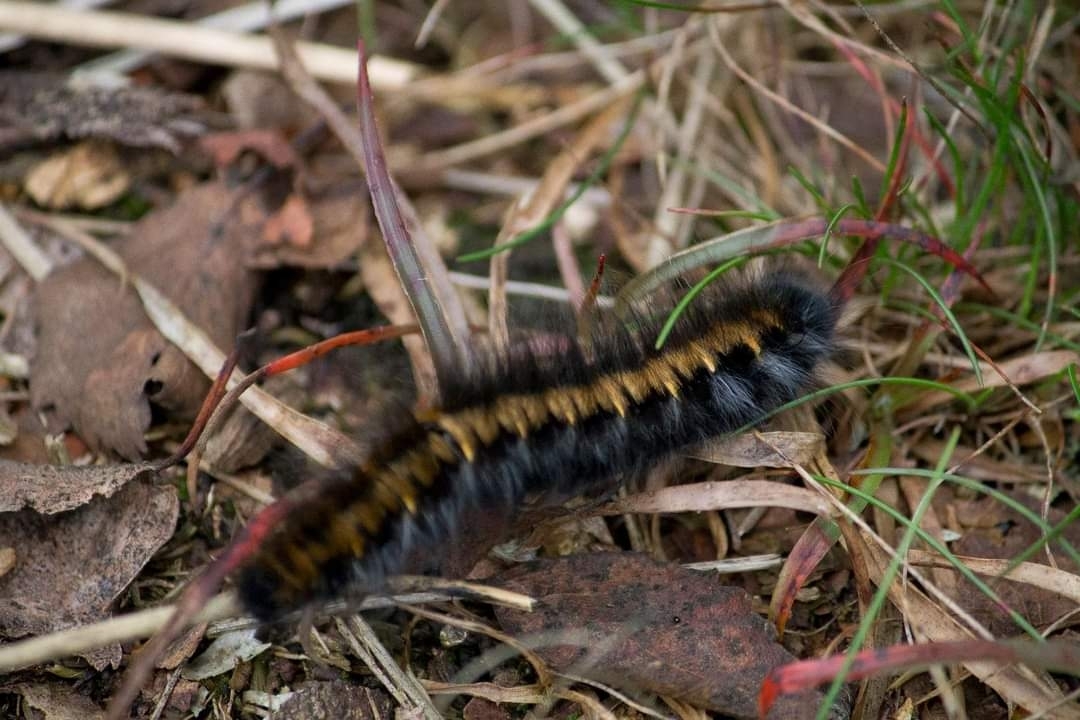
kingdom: Animalia
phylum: Arthropoda
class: Insecta
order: Lepidoptera
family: Lasiocampidae
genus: Macrothylacia
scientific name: Macrothylacia rubi
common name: Fox moth
